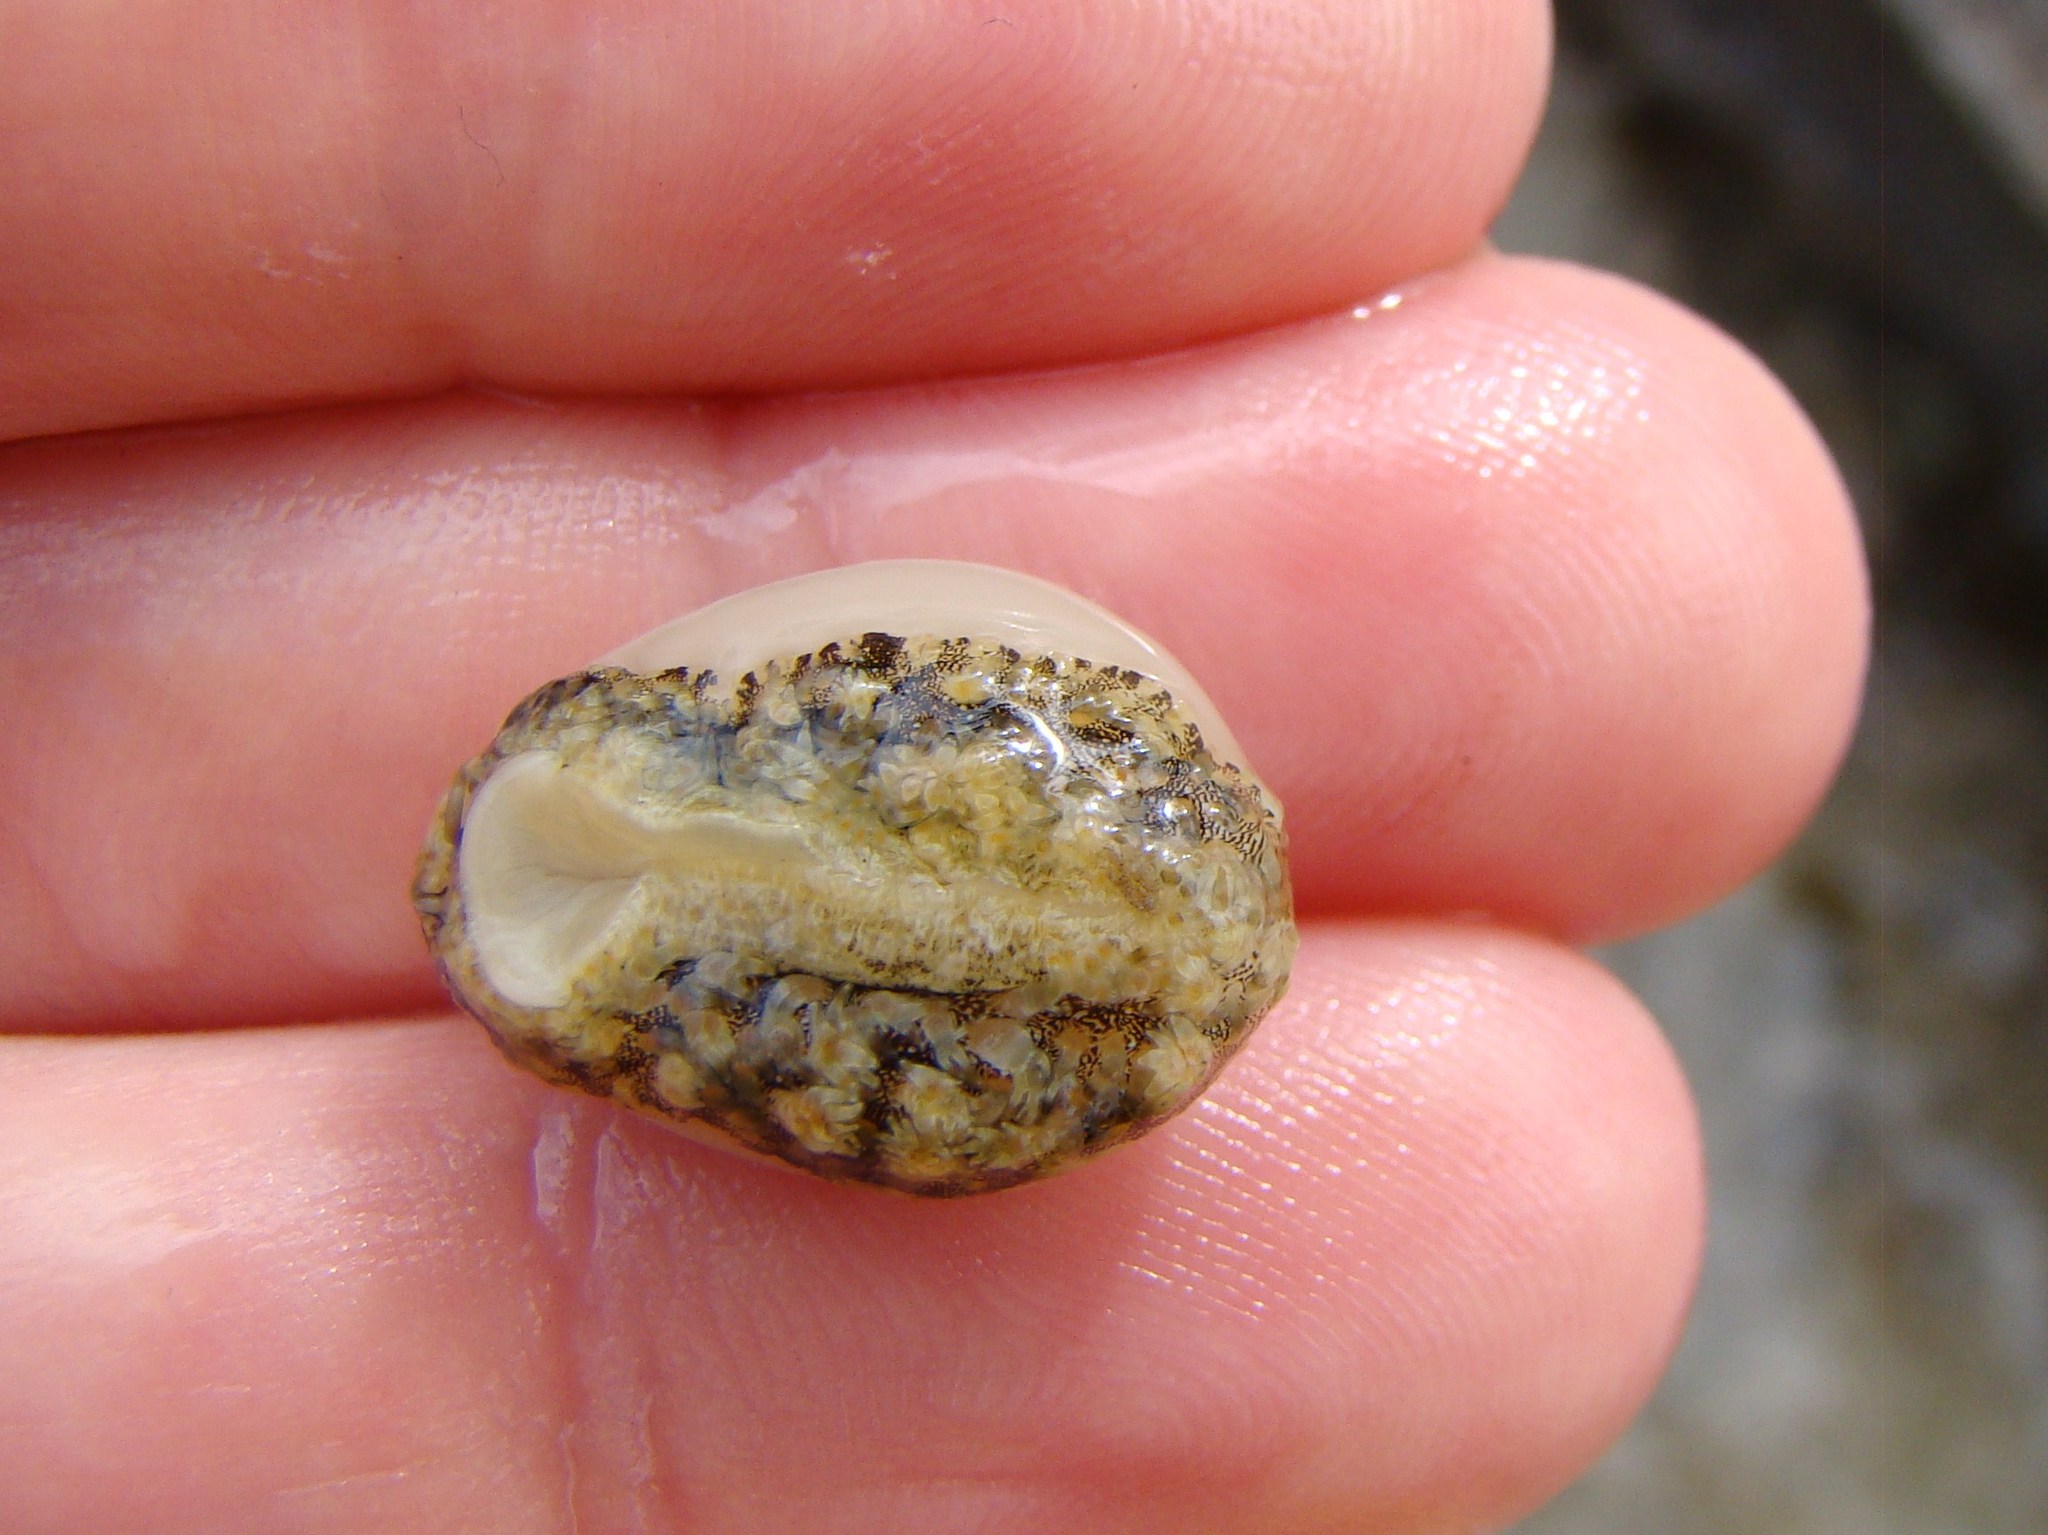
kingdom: Animalia
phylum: Mollusca
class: Gastropoda
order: Littorinimorpha
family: Cypraeidae
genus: Monetaria
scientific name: Monetaria obvelata
